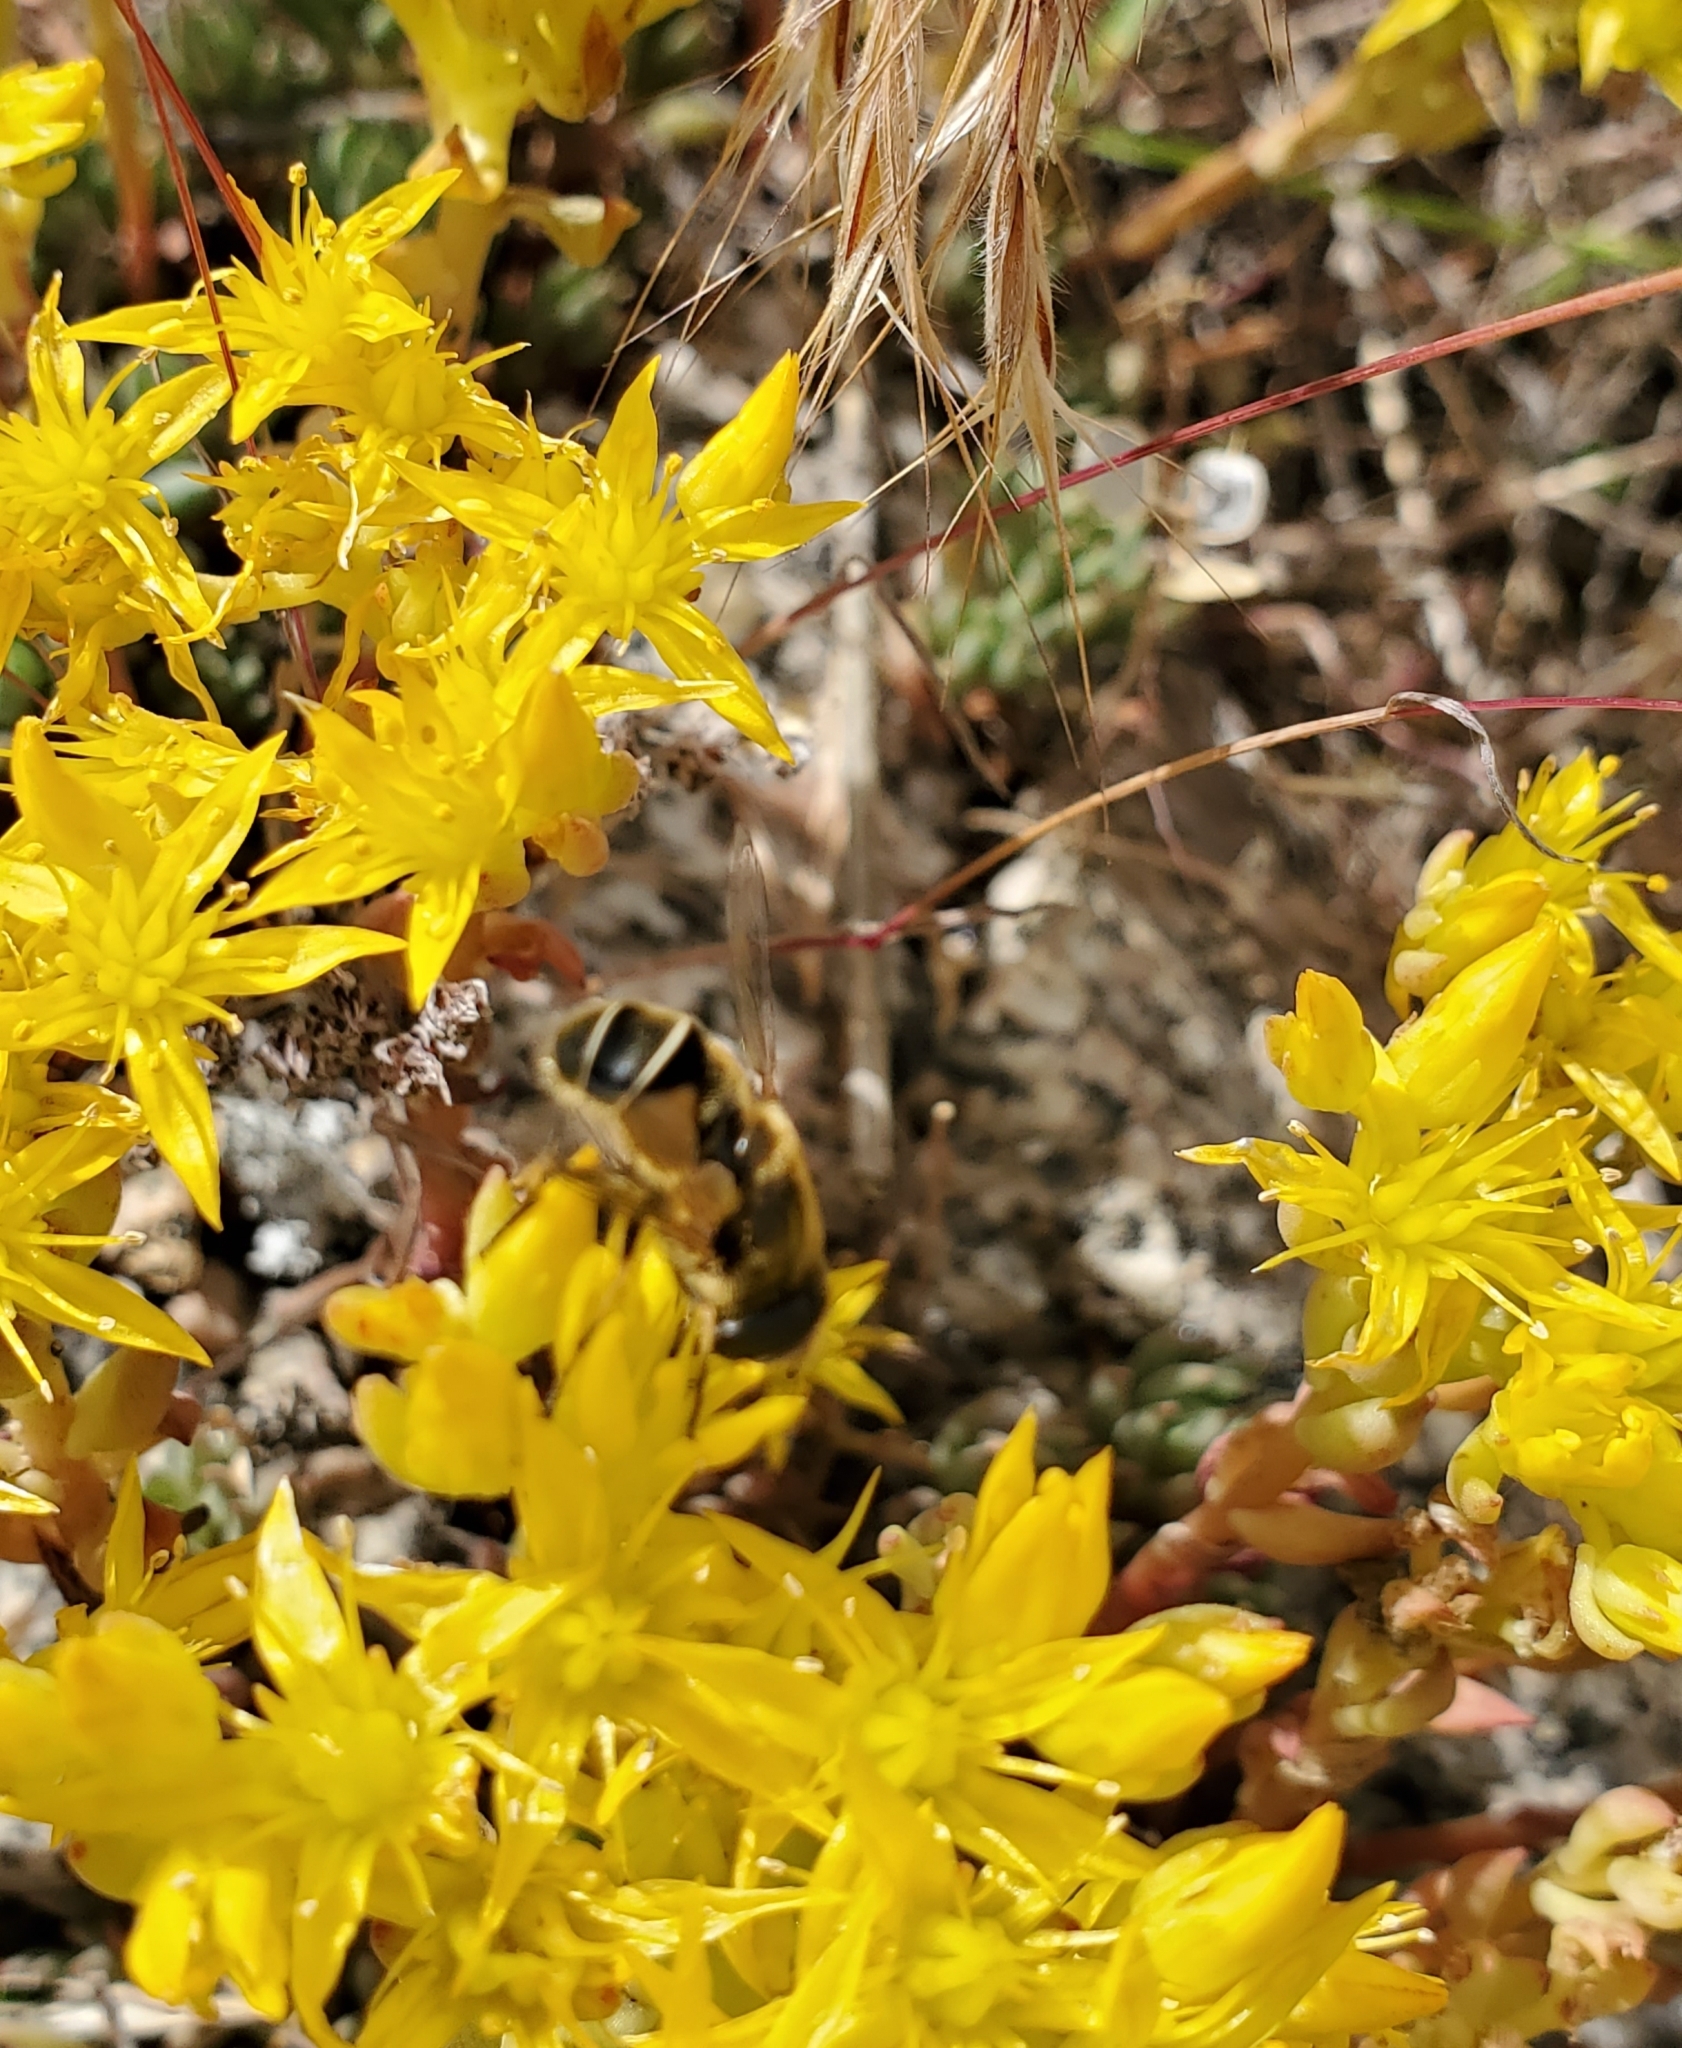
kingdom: Plantae
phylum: Tracheophyta
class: Magnoliopsida
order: Saxifragales
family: Crassulaceae
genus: Sedum
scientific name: Sedum lanceolatum
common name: Common stonecrop
